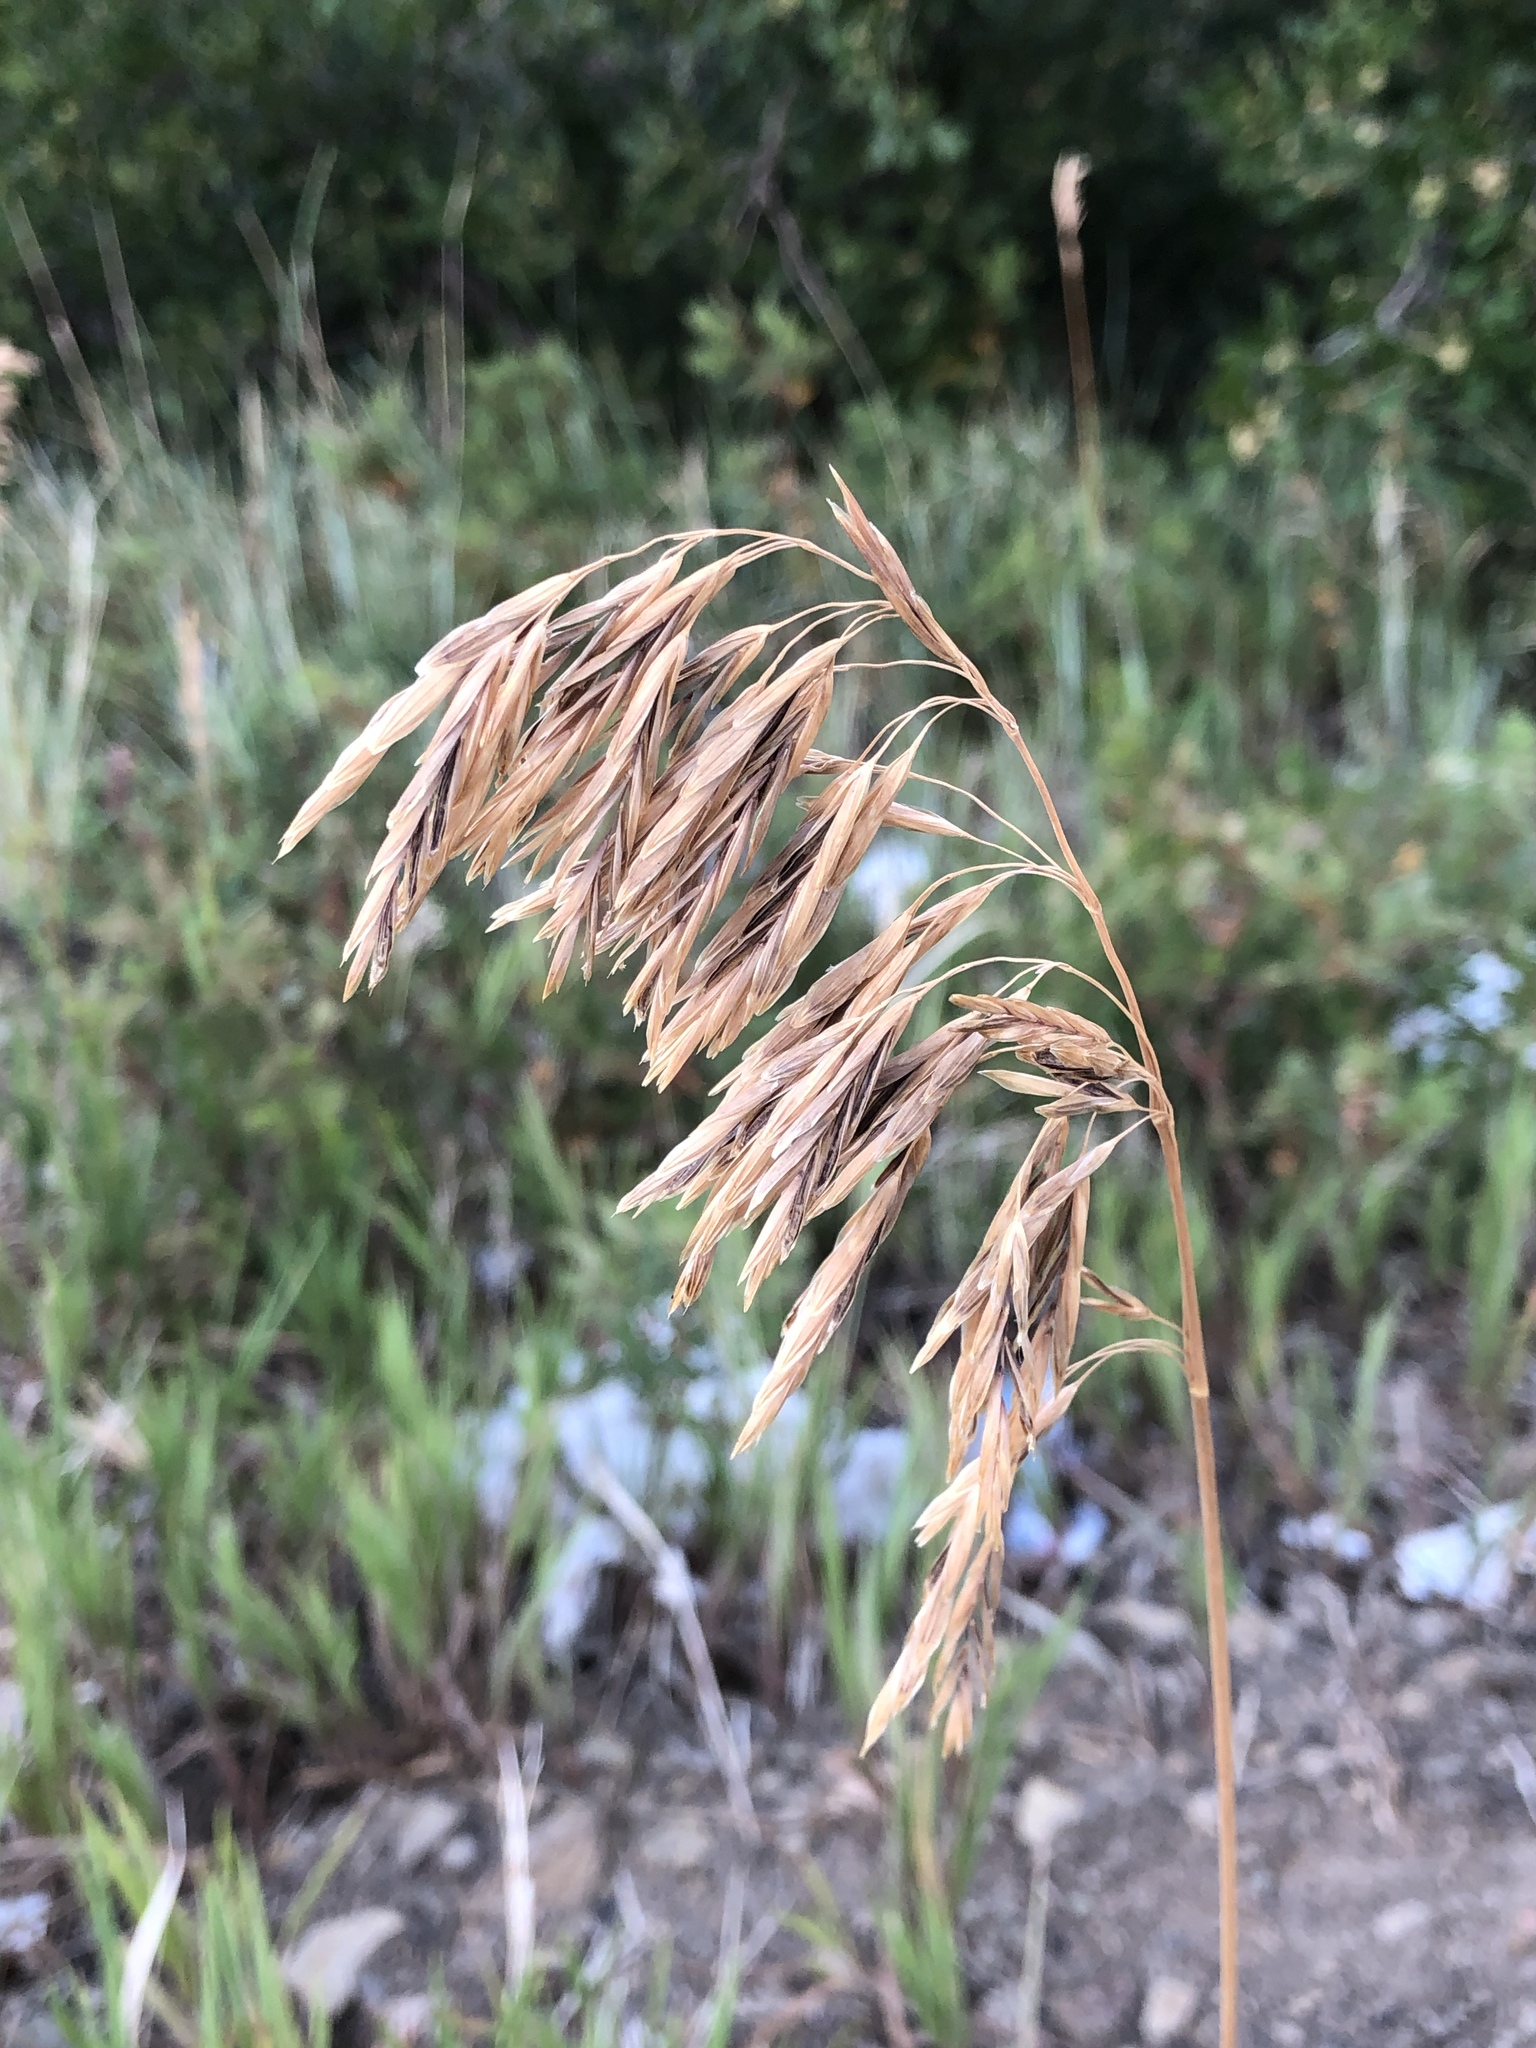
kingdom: Plantae
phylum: Tracheophyta
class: Liliopsida
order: Poales
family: Poaceae
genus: Bromus
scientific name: Bromus inermis
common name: Smooth brome
